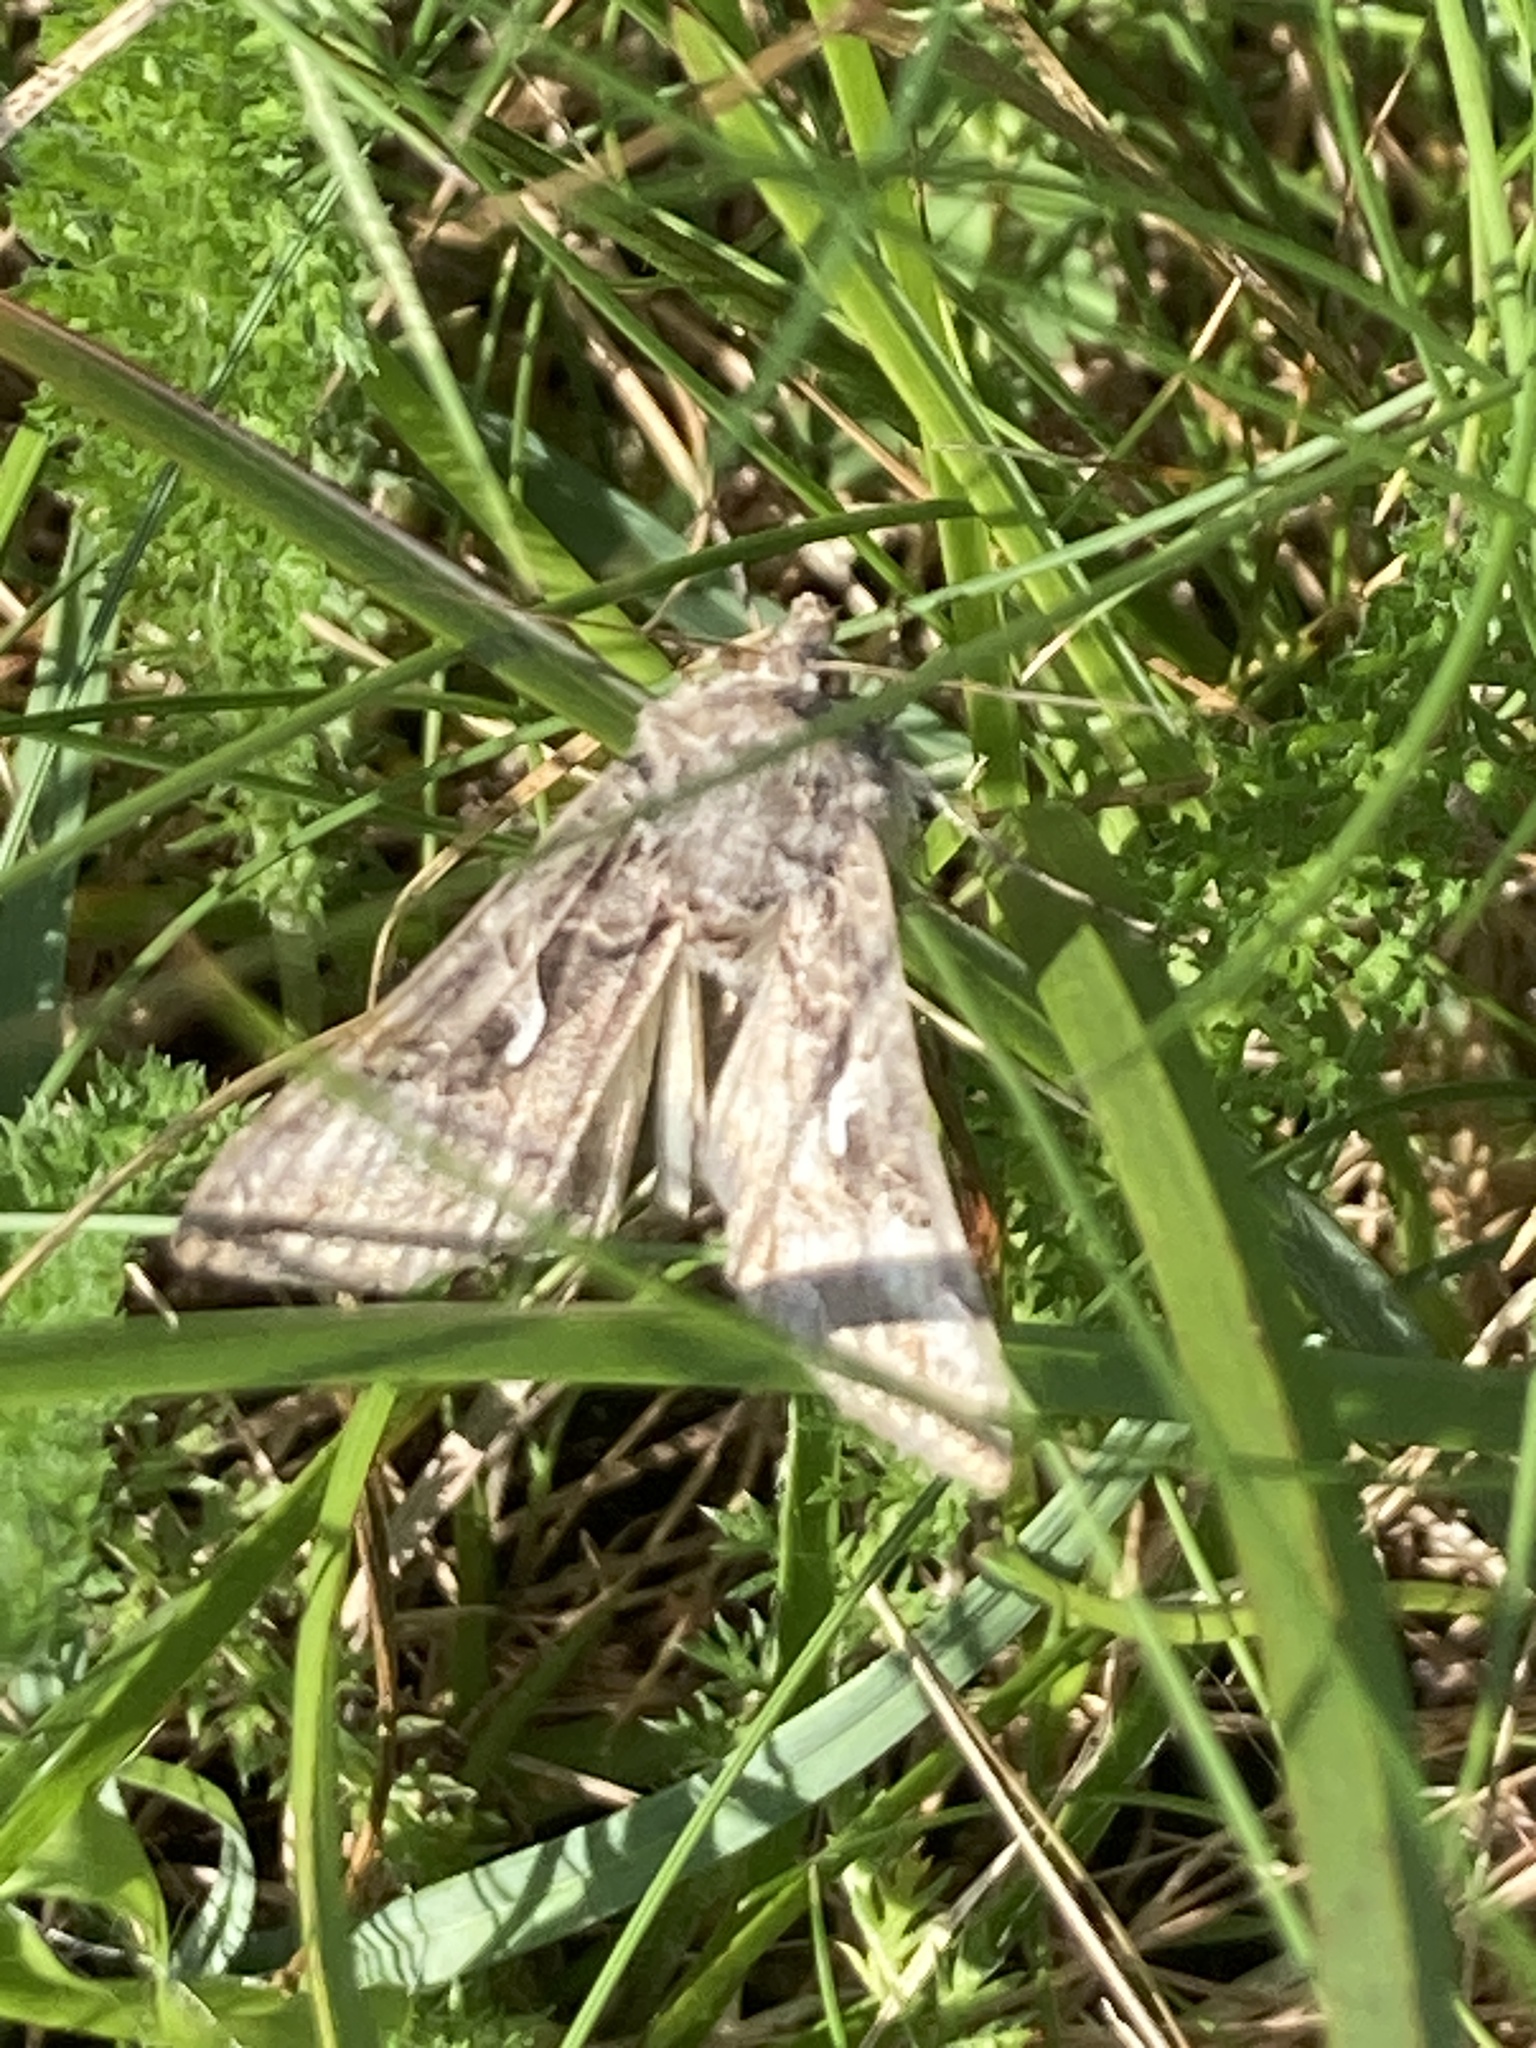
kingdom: Animalia
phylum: Arthropoda
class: Insecta
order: Lepidoptera
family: Noctuidae
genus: Autographa
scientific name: Autographa gamma
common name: Silver y
